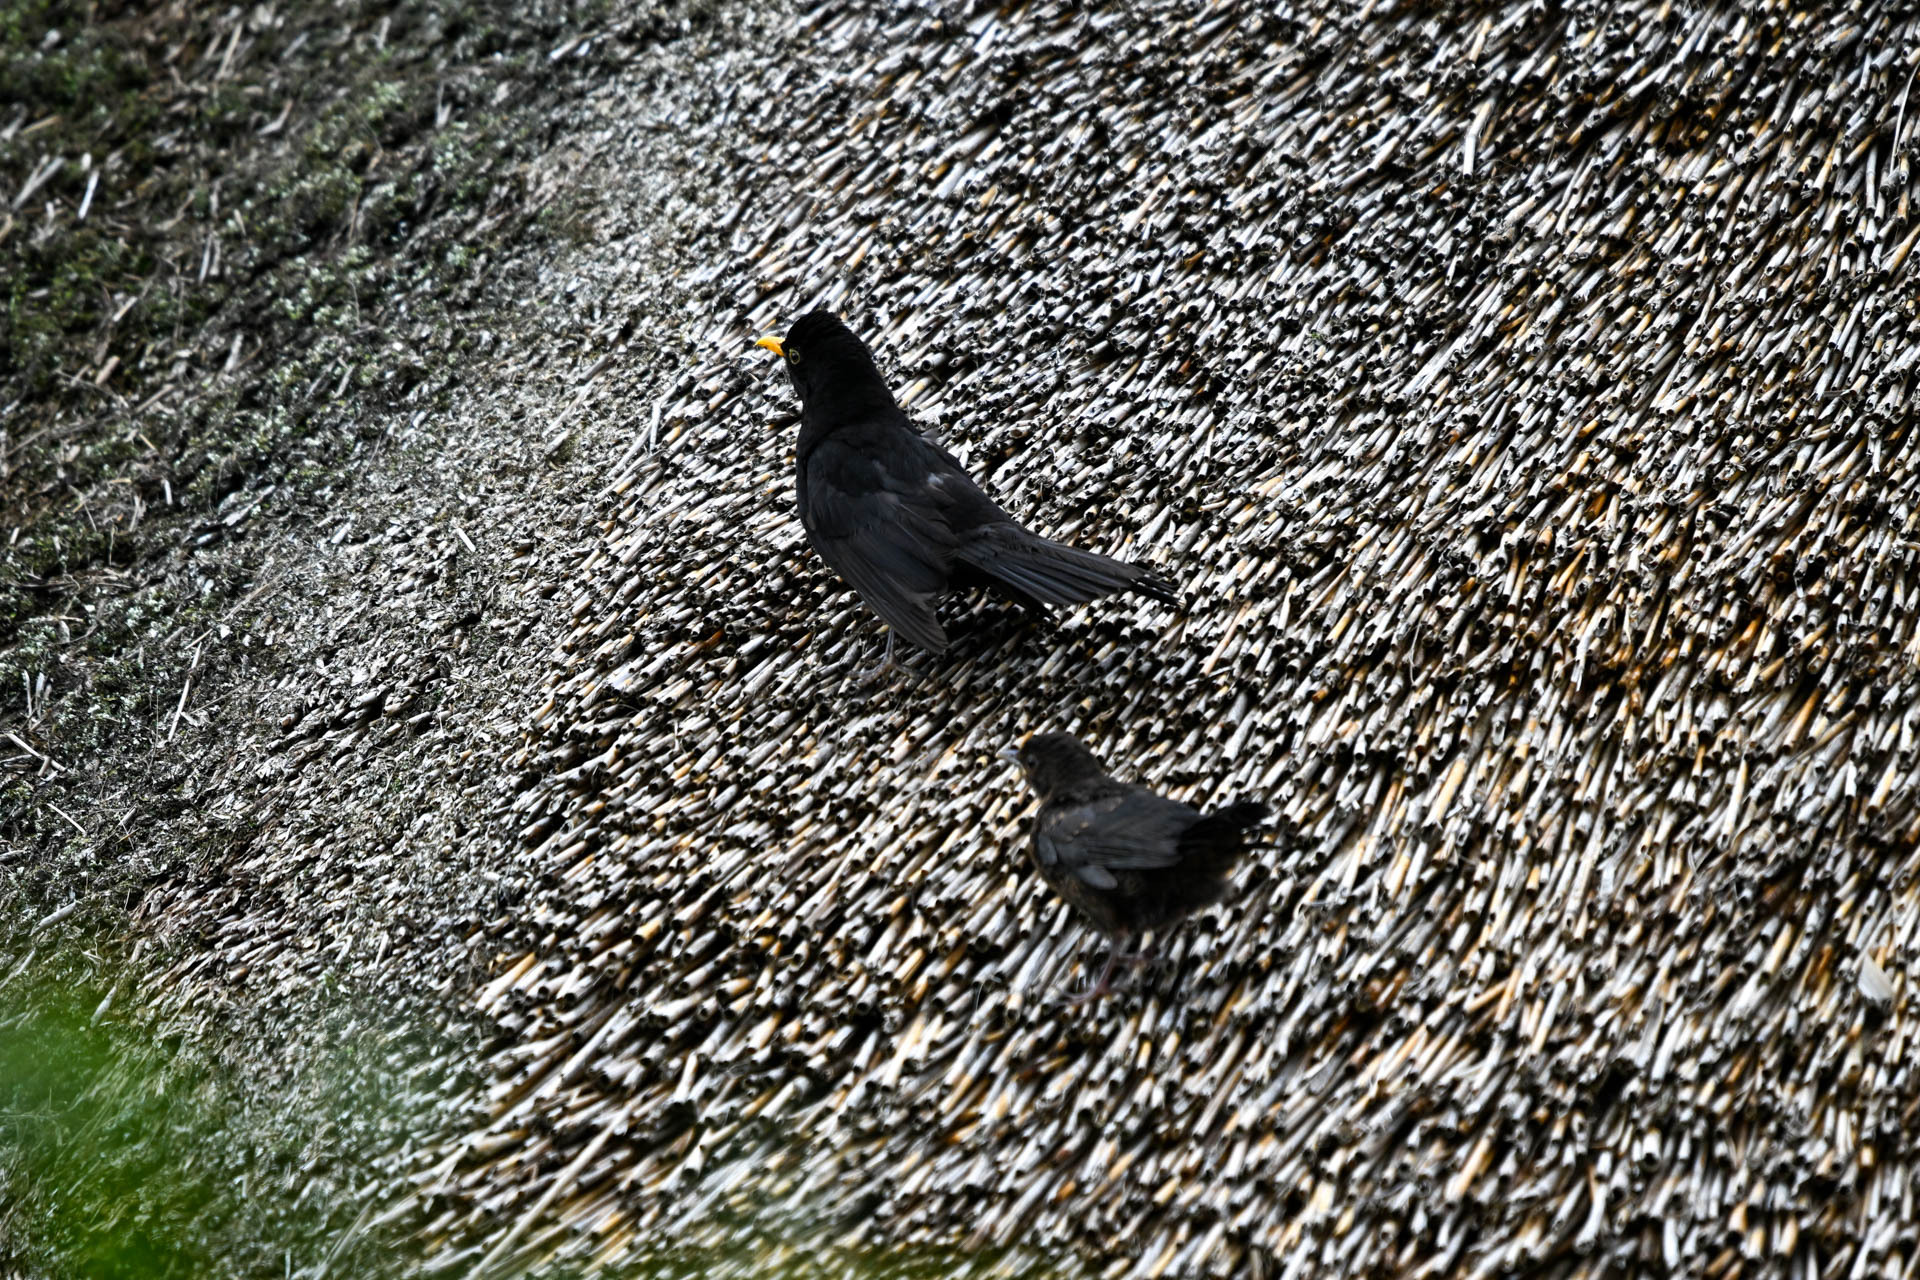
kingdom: Animalia
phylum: Chordata
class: Aves
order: Passeriformes
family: Turdidae
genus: Turdus
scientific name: Turdus merula
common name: Common blackbird
